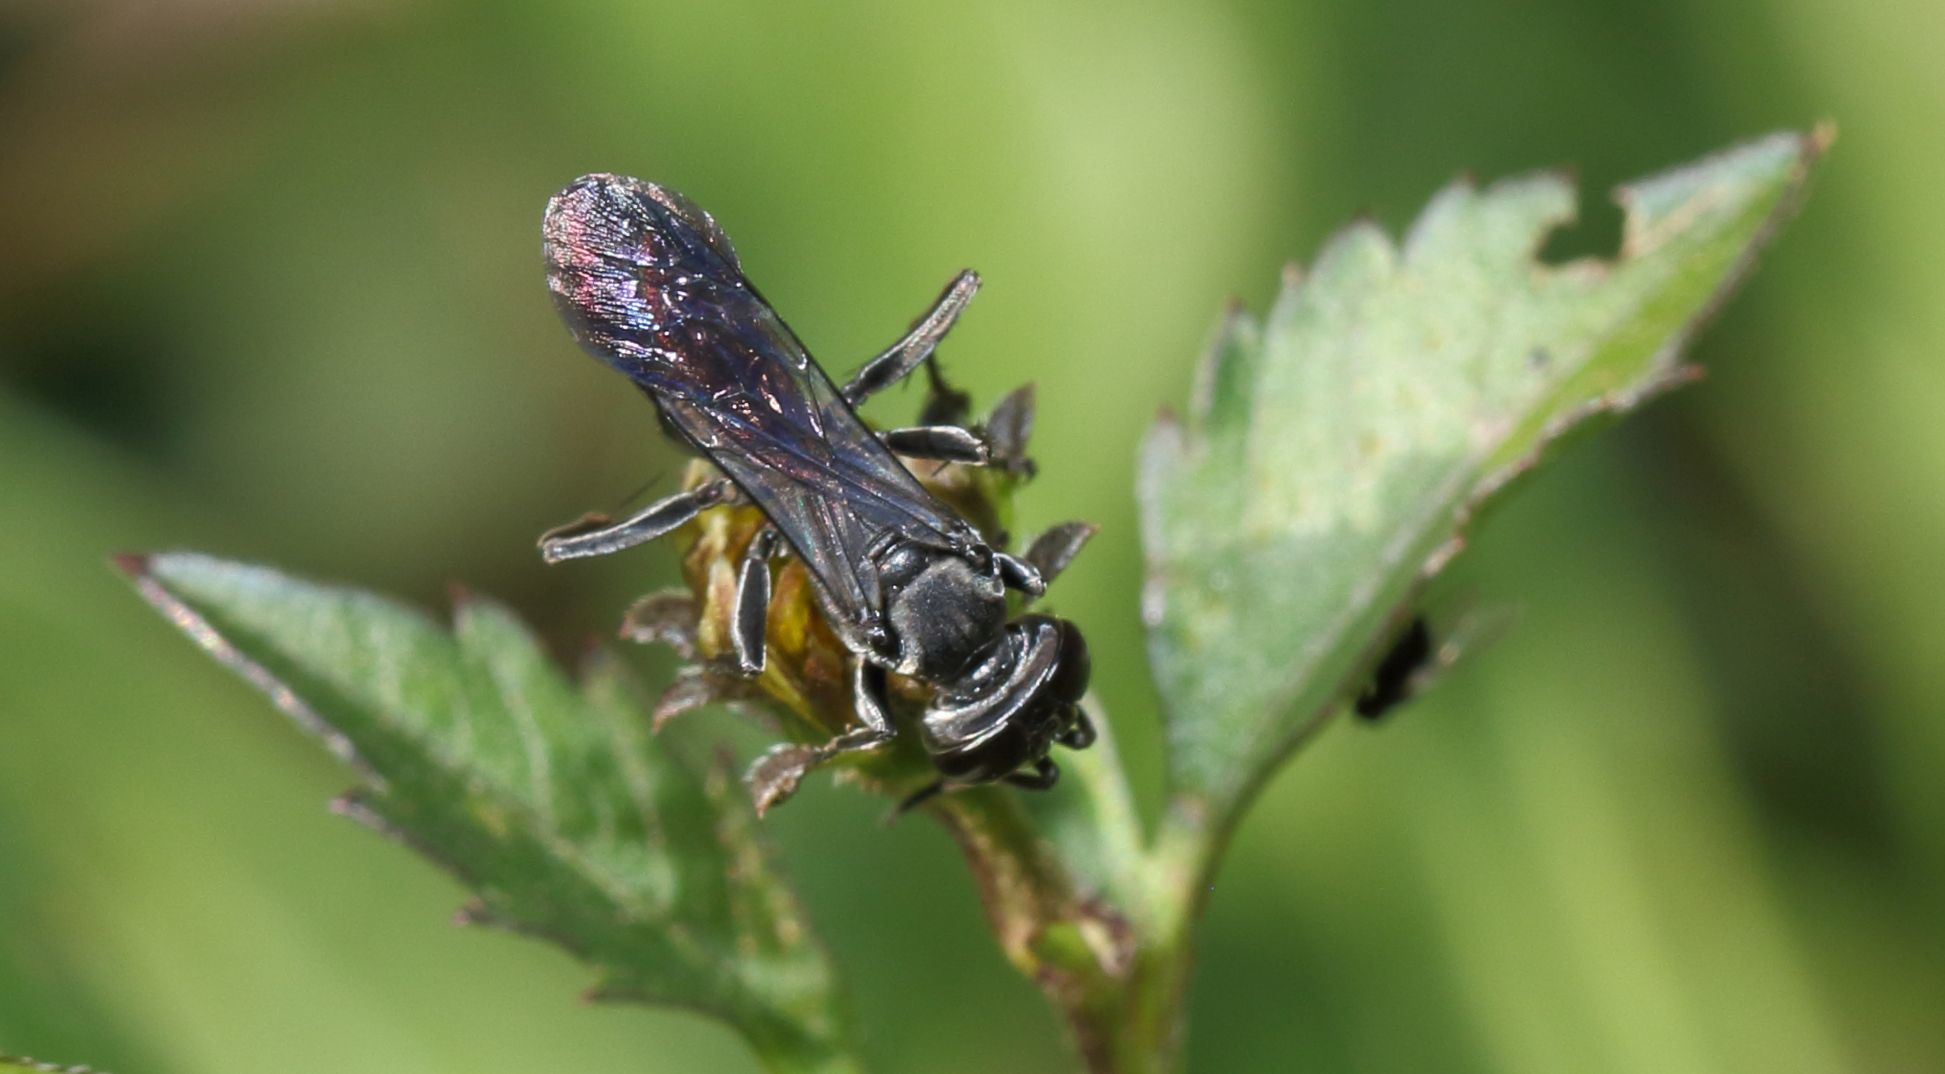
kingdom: Plantae
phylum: Tracheophyta
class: Magnoliopsida
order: Asterales
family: Asteraceae
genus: Bidens
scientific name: Bidens pilosa
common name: Black-jack
